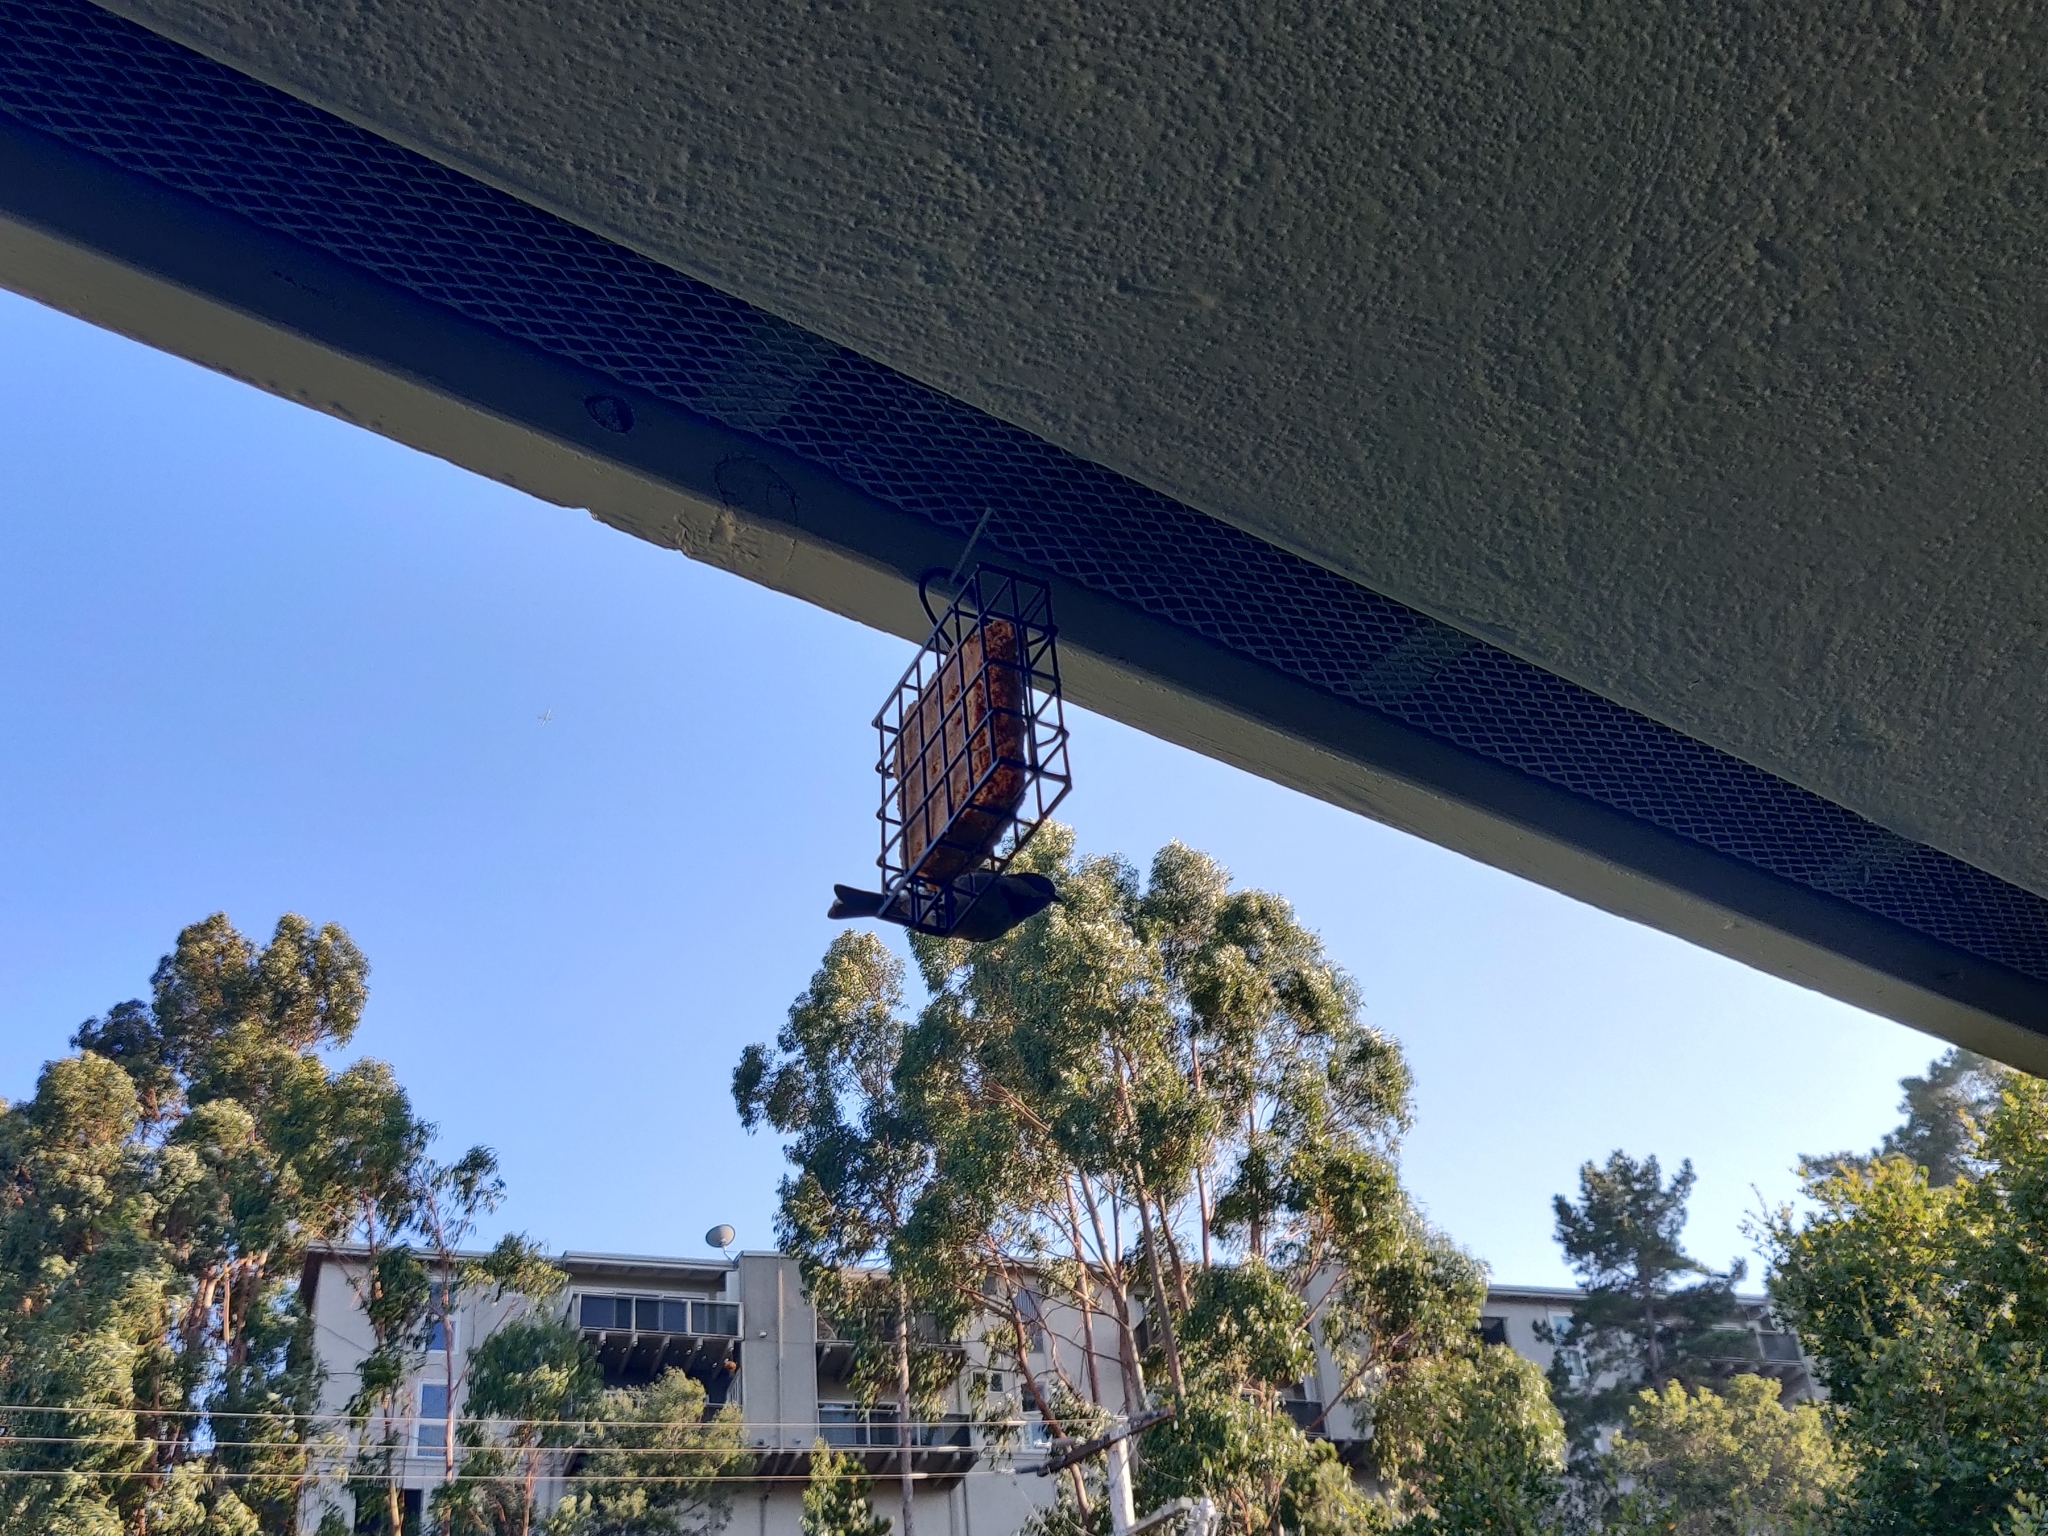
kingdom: Animalia
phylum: Chordata
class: Aves
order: Passeriformes
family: Paridae
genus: Poecile
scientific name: Poecile rufescens
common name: Chestnut-backed chickadee
